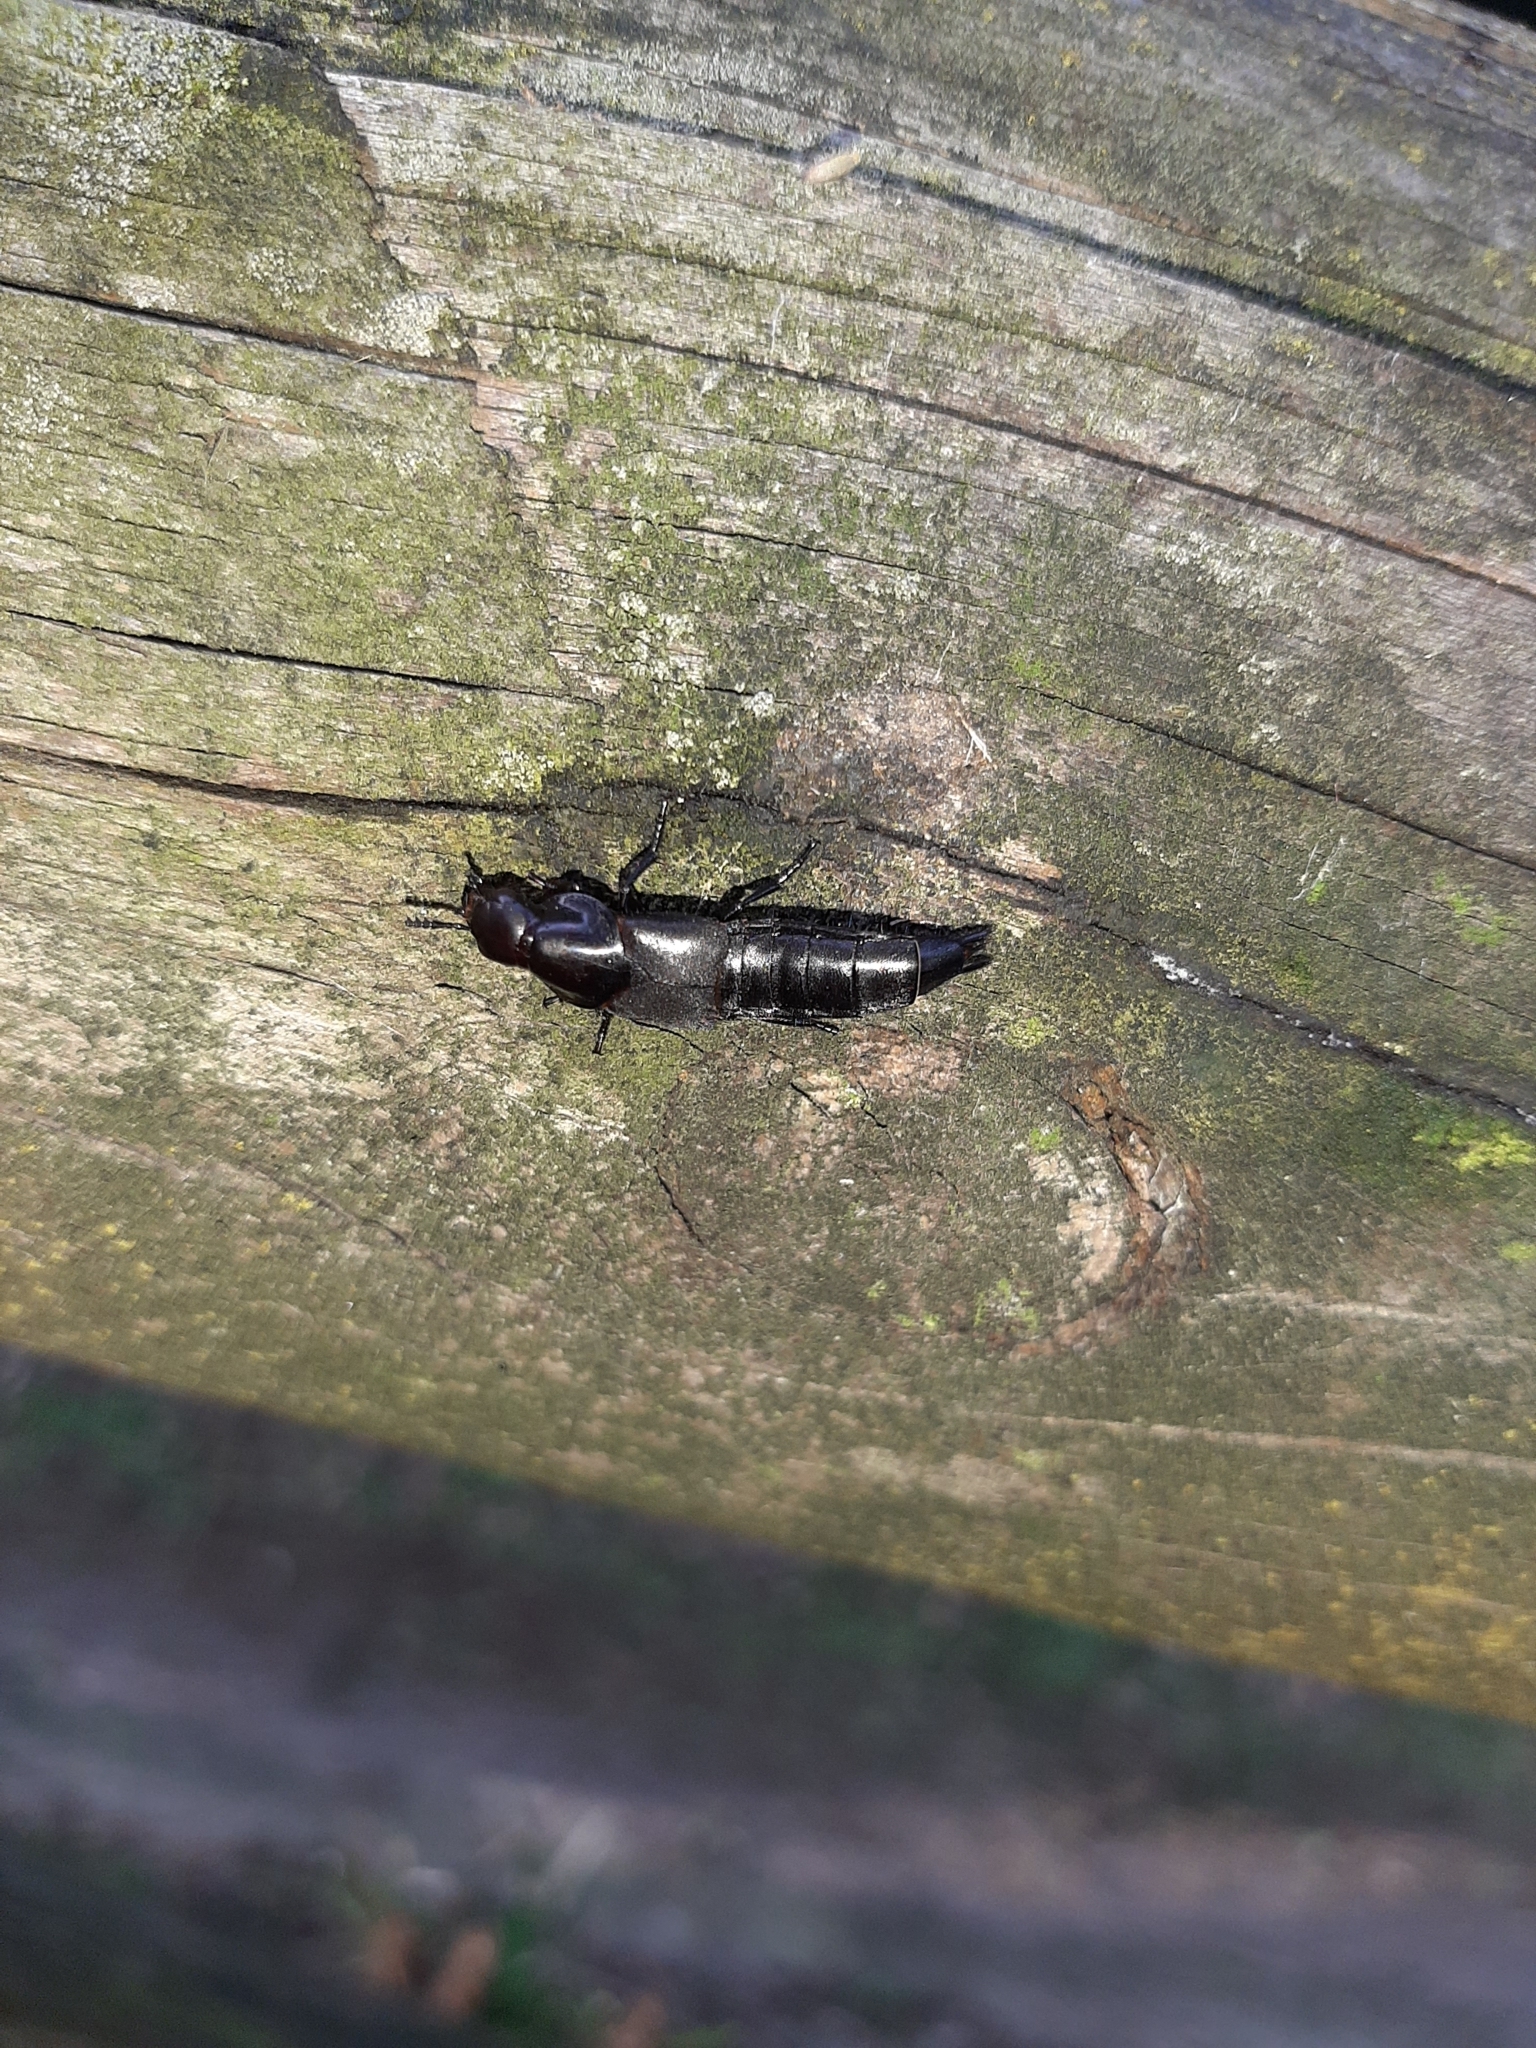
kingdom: Animalia
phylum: Arthropoda
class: Insecta
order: Coleoptera
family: Staphylinidae
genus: Quedius
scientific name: Quedius dilatatus
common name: Hornet rove-beetle
